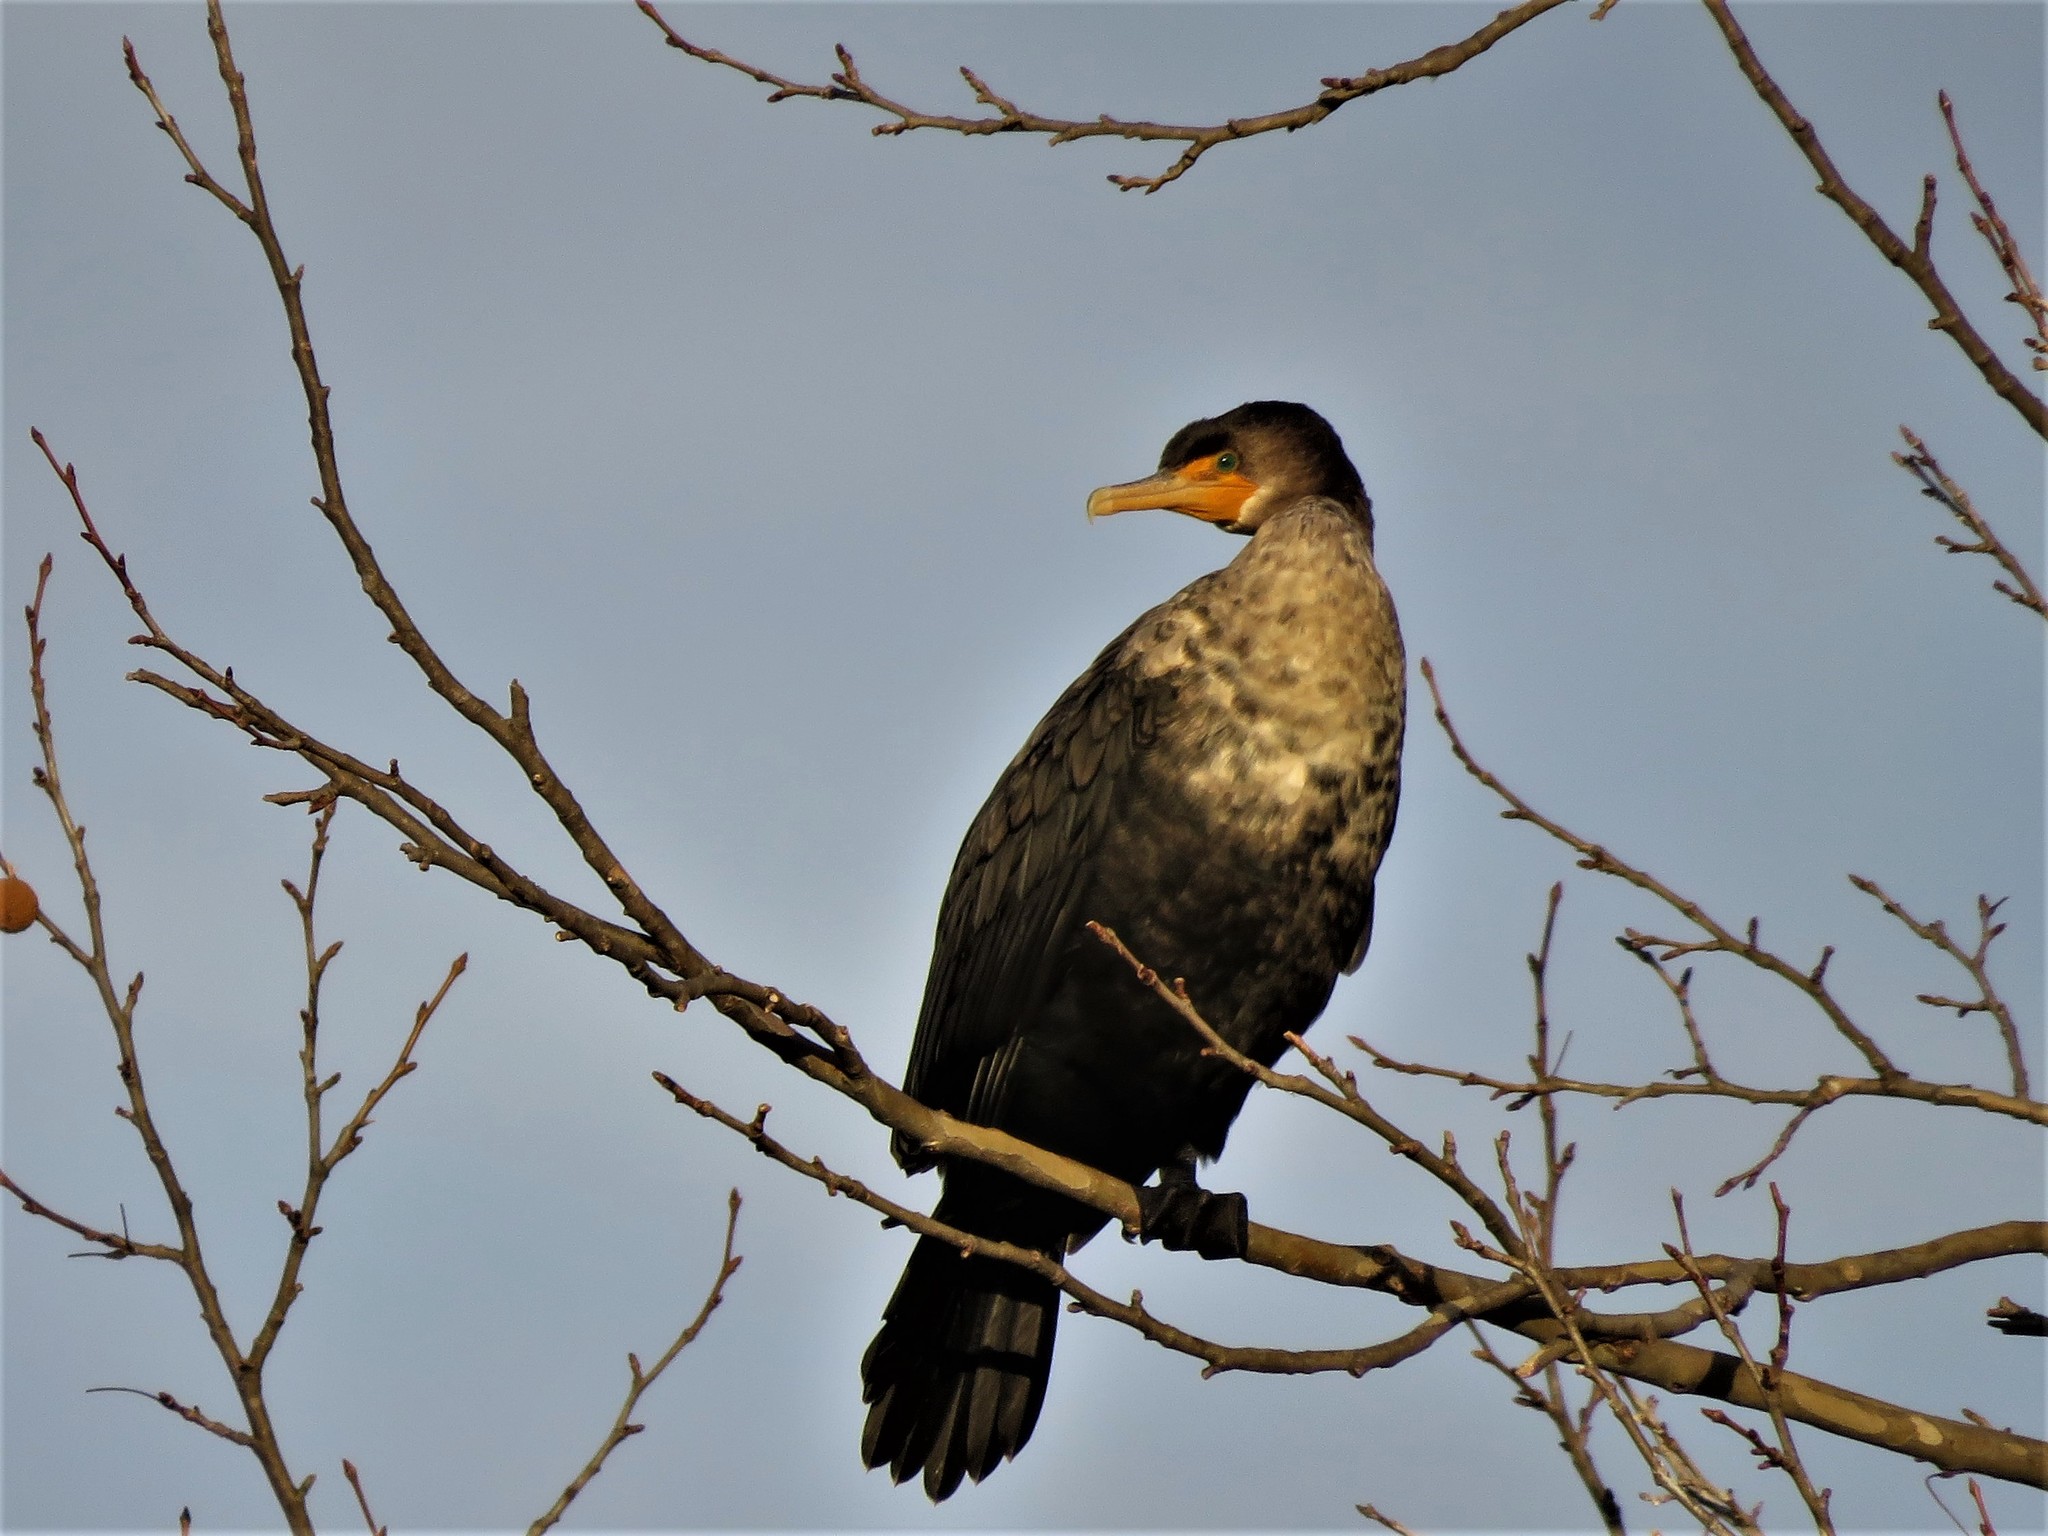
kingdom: Animalia
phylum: Chordata
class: Aves
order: Suliformes
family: Phalacrocoracidae
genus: Phalacrocorax
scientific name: Phalacrocorax auritus
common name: Double-crested cormorant
